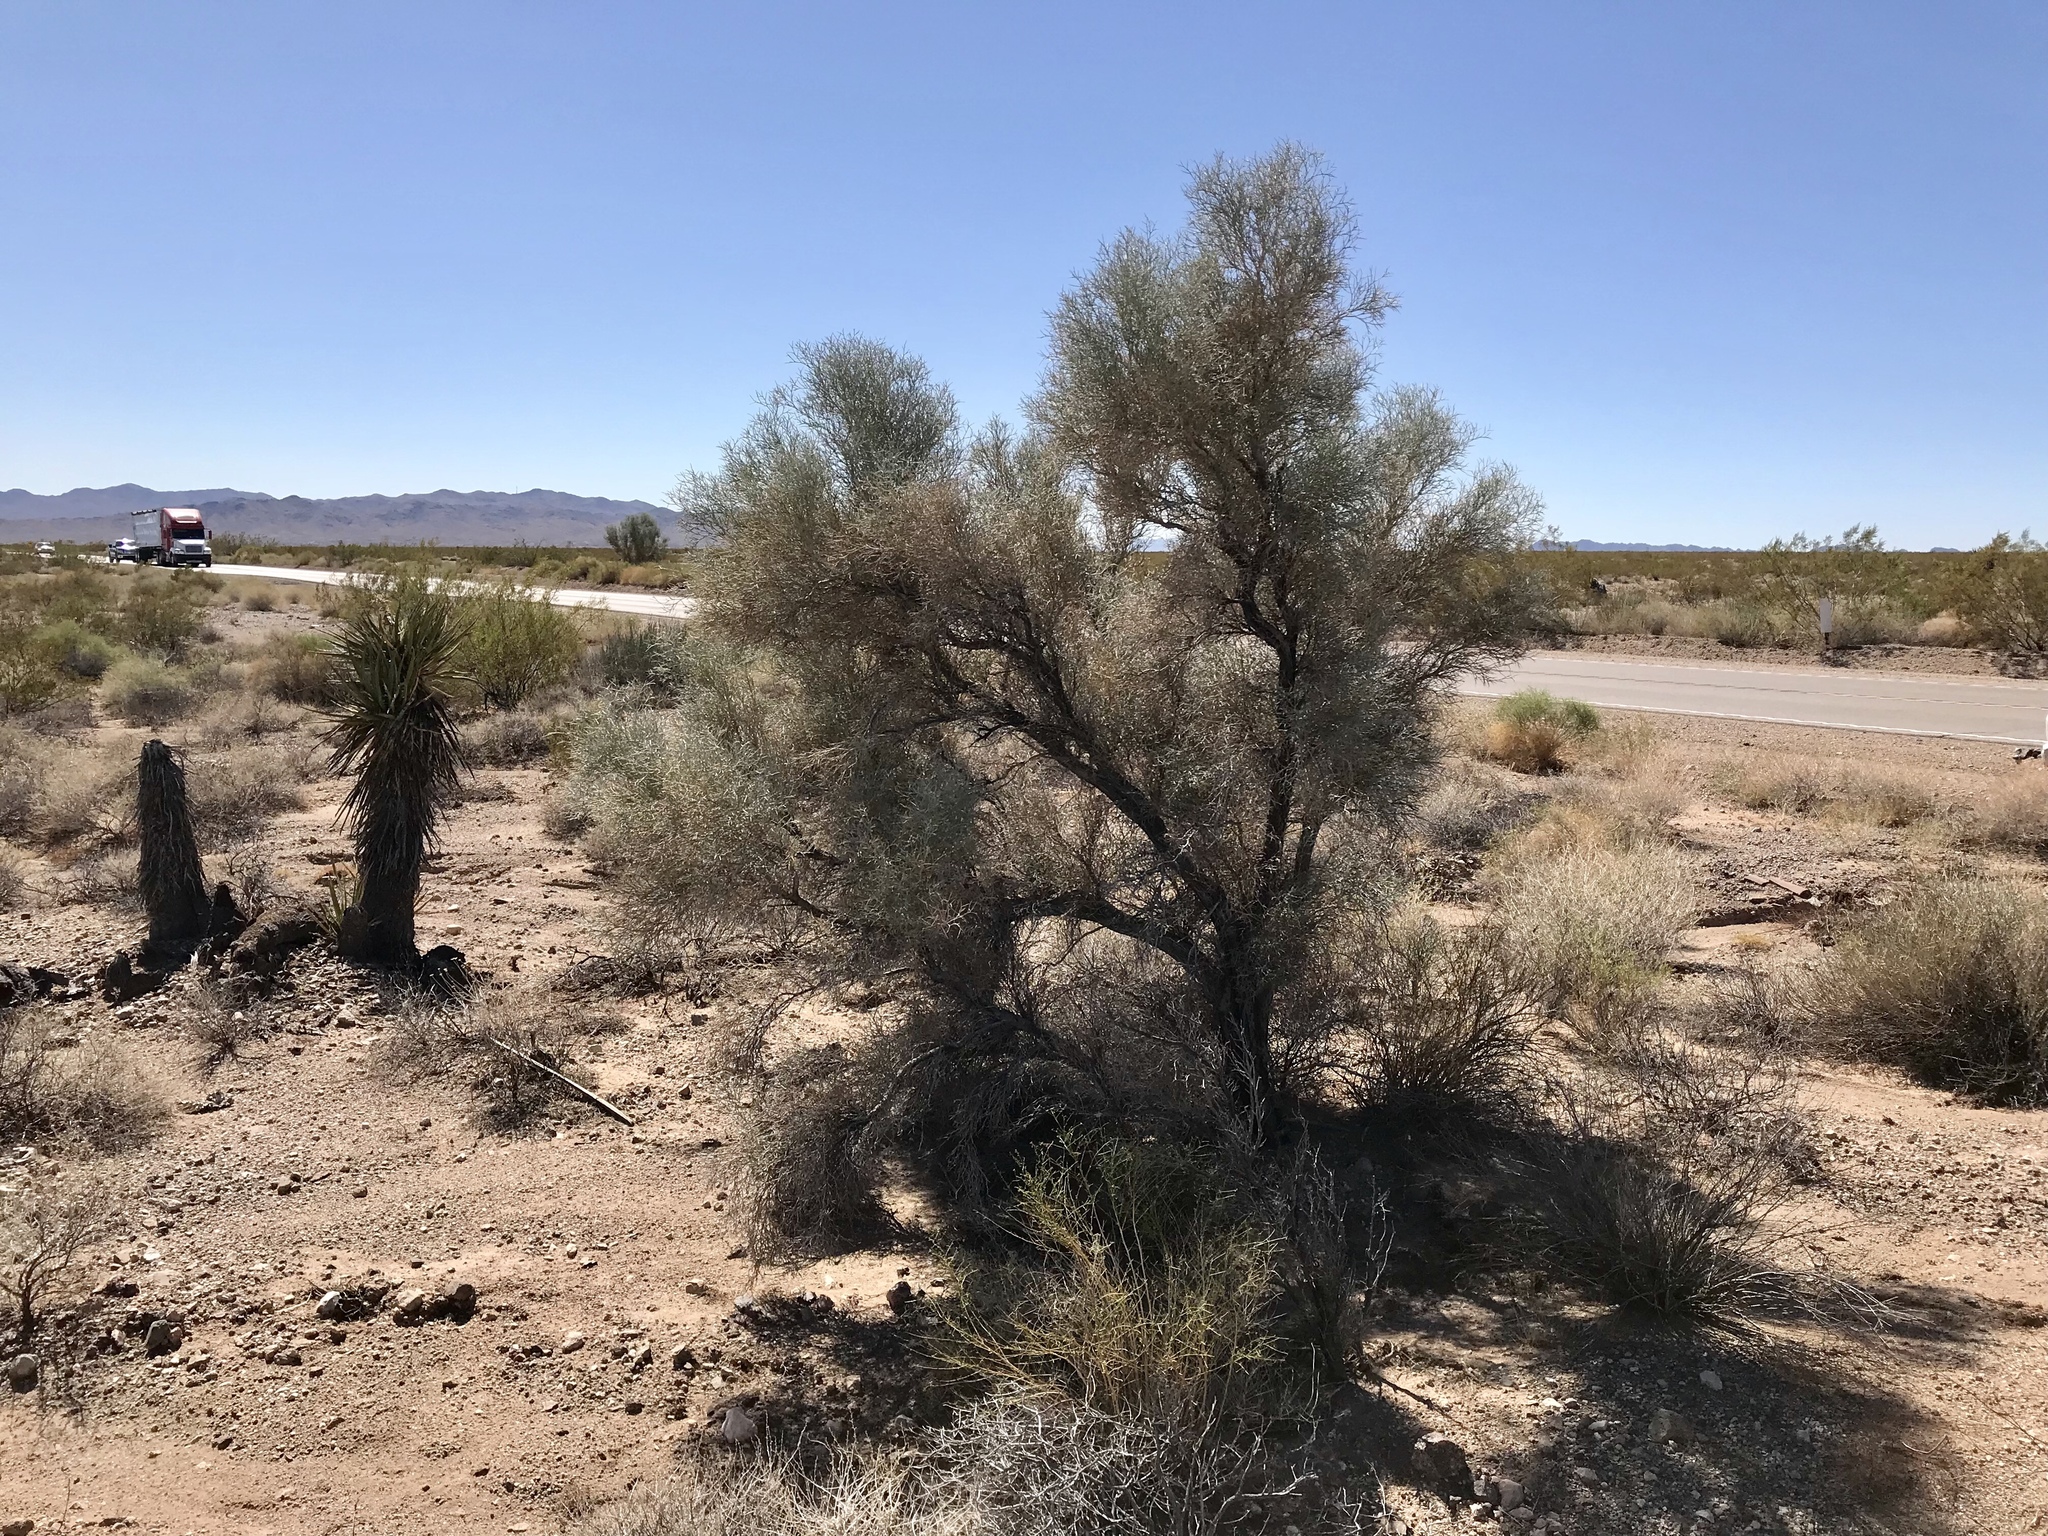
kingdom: Plantae
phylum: Tracheophyta
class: Magnoliopsida
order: Fabales
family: Fabaceae
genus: Psorothamnus
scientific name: Psorothamnus spinosus
